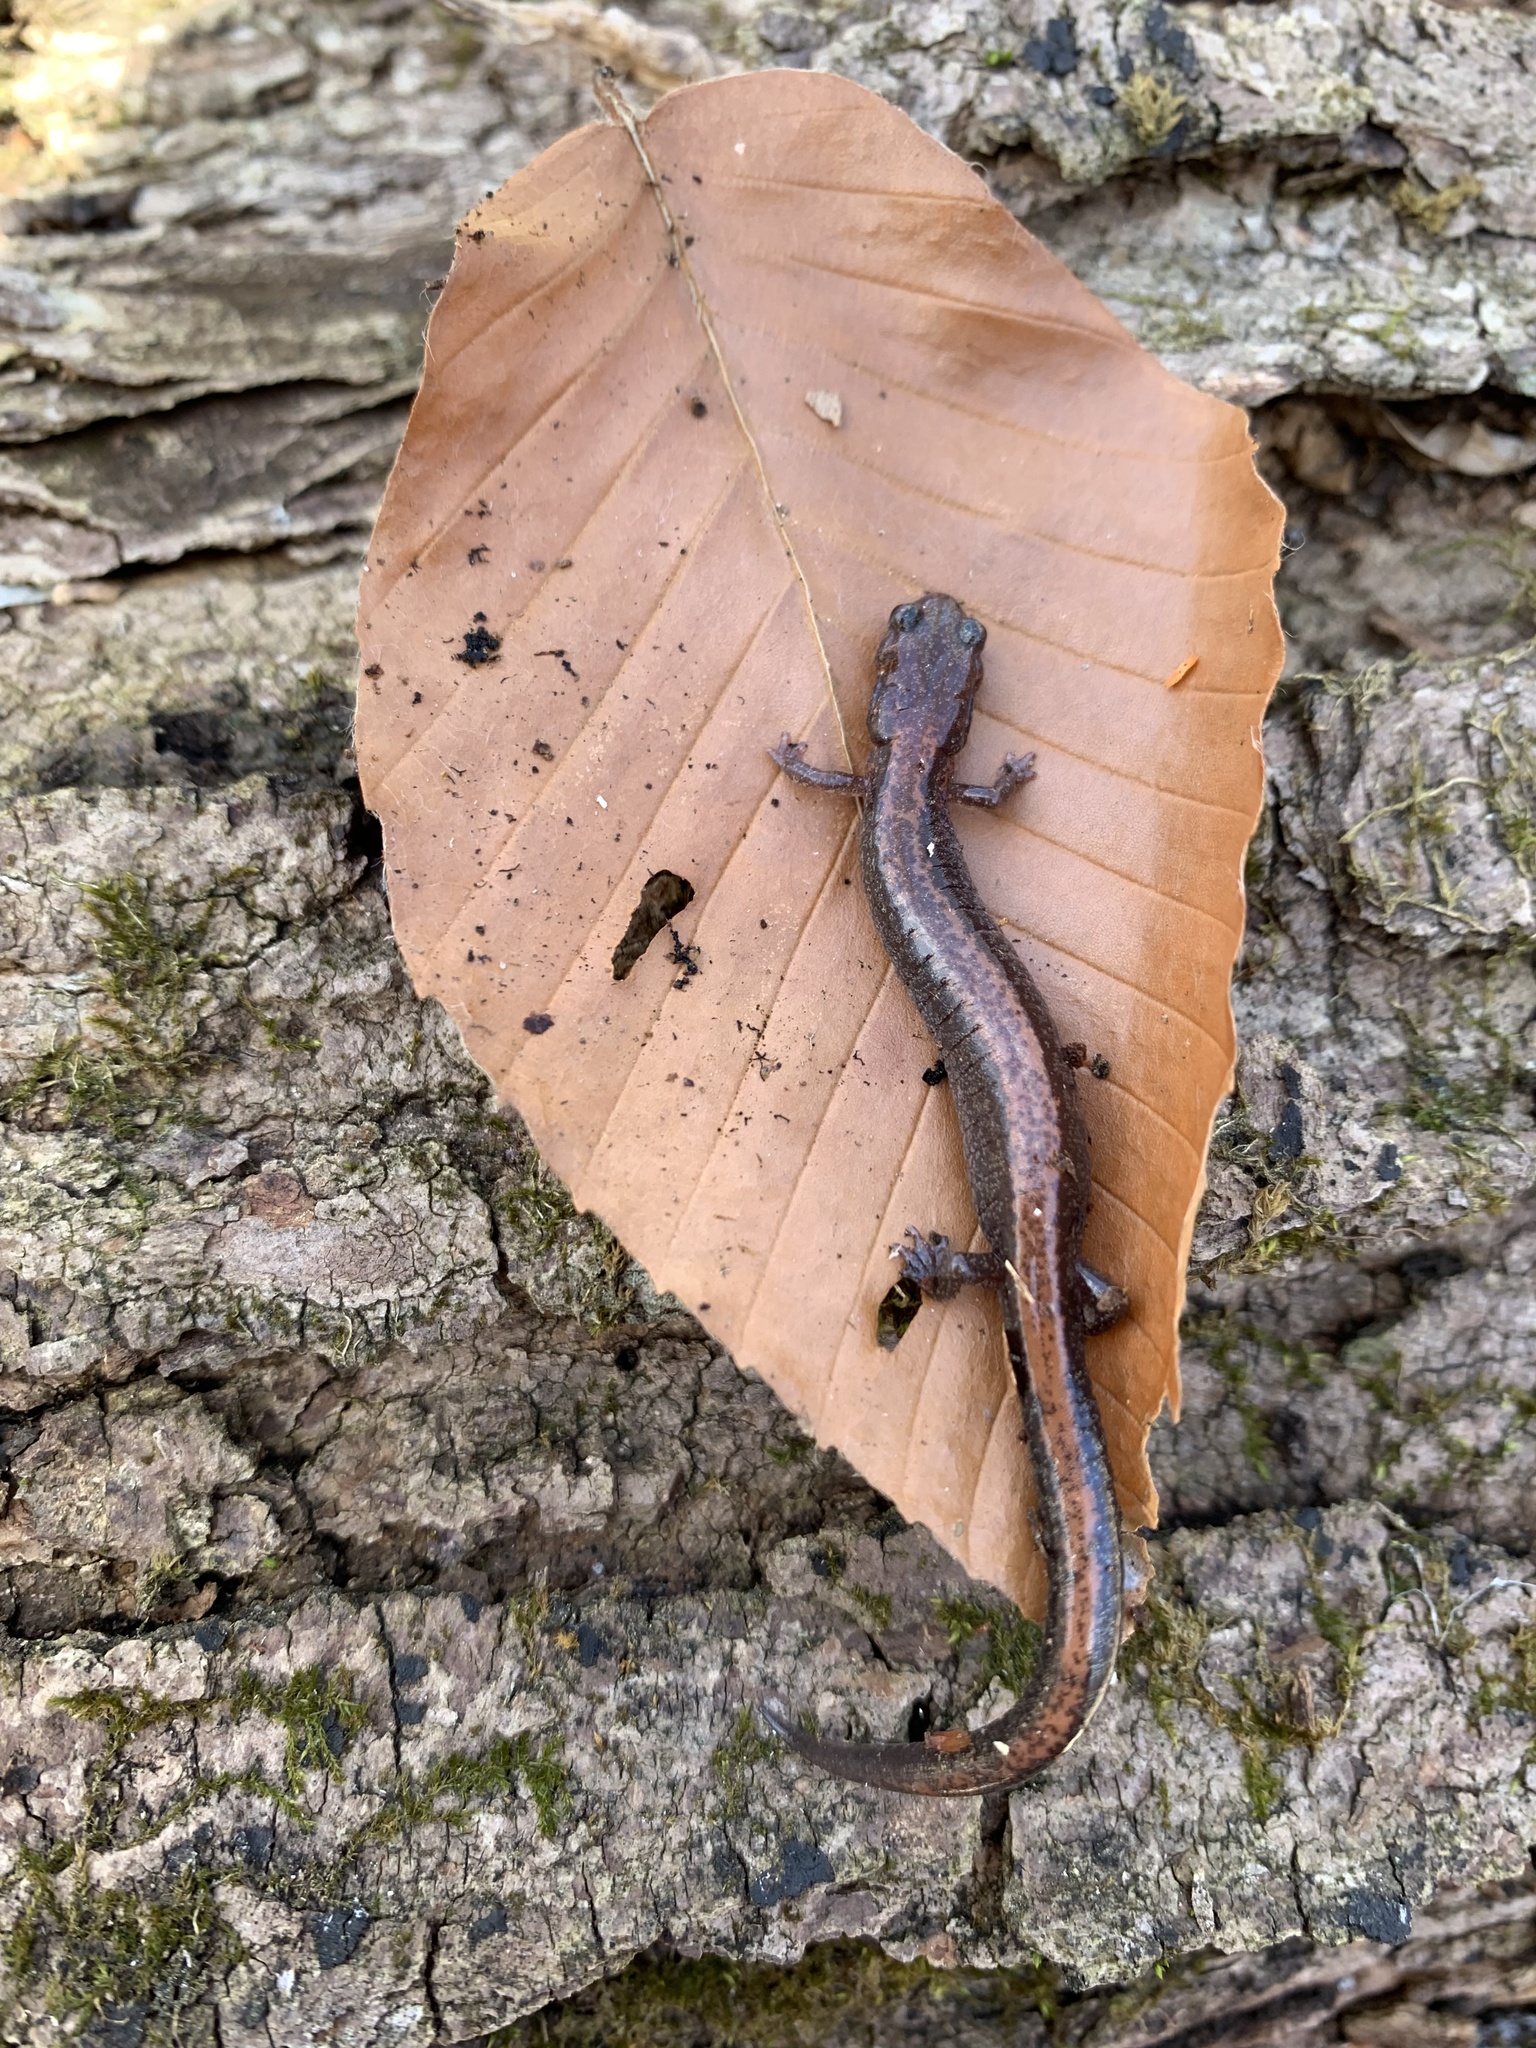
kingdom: Animalia
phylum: Chordata
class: Amphibia
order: Caudata
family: Plethodontidae
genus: Plethodon
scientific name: Plethodon cinereus
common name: Redback salamander
